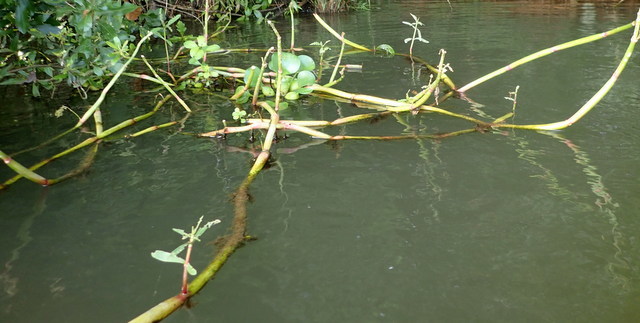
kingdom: Plantae
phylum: Tracheophyta
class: Magnoliopsida
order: Caryophyllales
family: Amaranthaceae
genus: Alternanthera
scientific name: Alternanthera philoxeroides
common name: Alligatorweed
